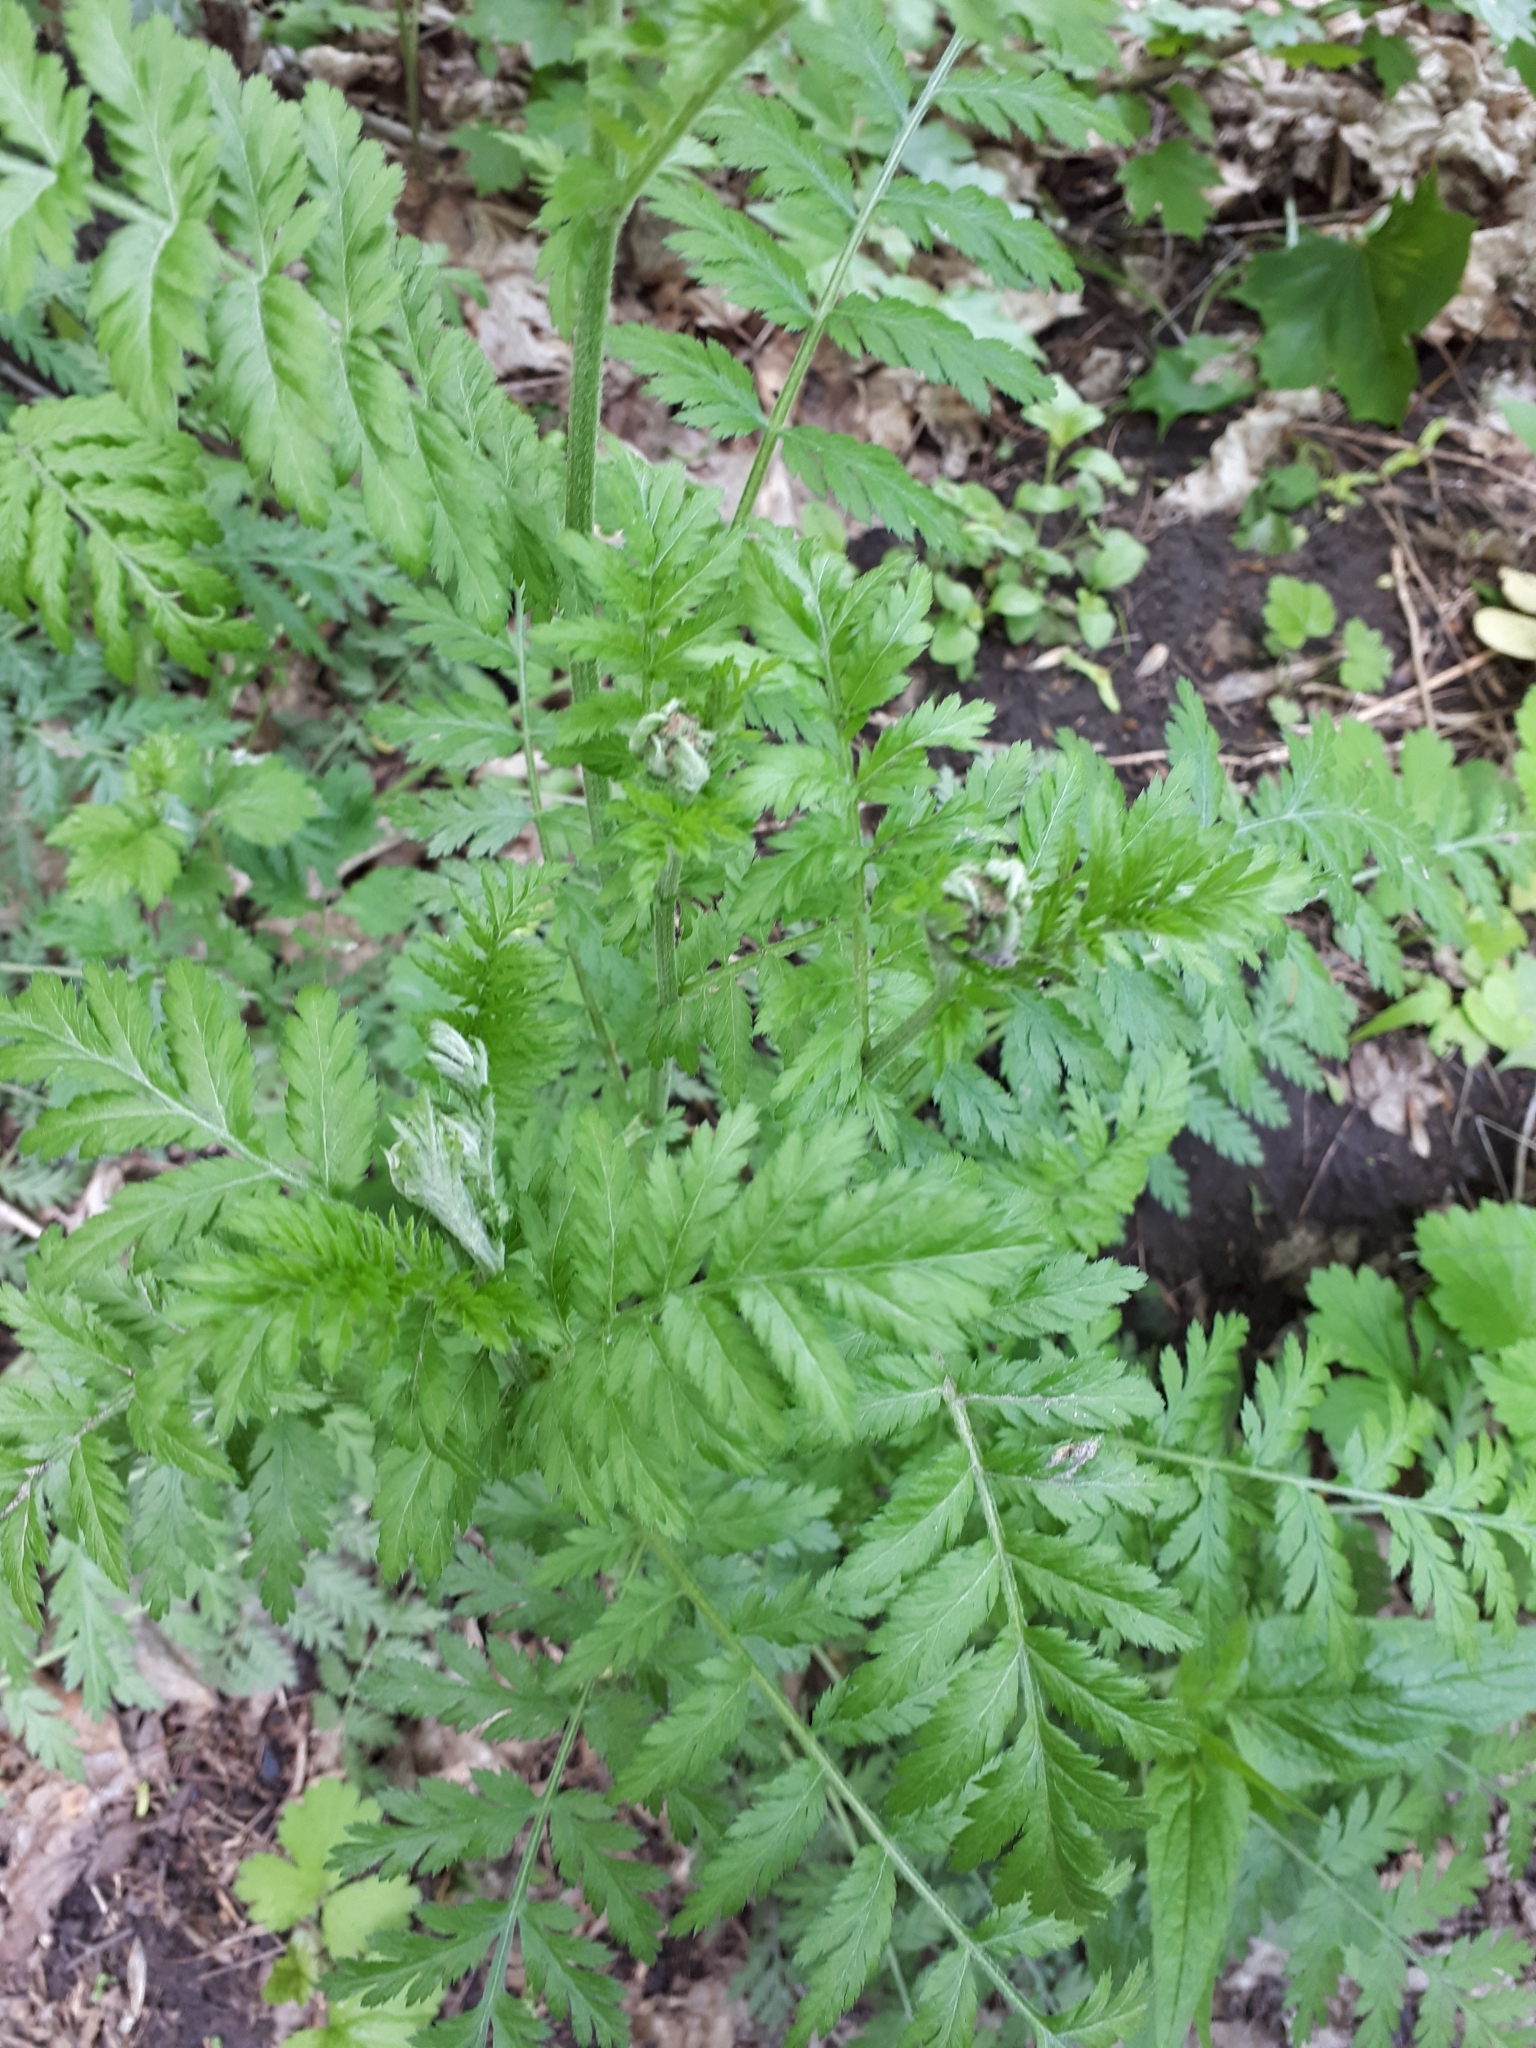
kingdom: Plantae
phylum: Tracheophyta
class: Magnoliopsida
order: Asterales
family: Asteraceae
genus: Tanacetum
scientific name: Tanacetum corymbosum
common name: Scentless feverfew
